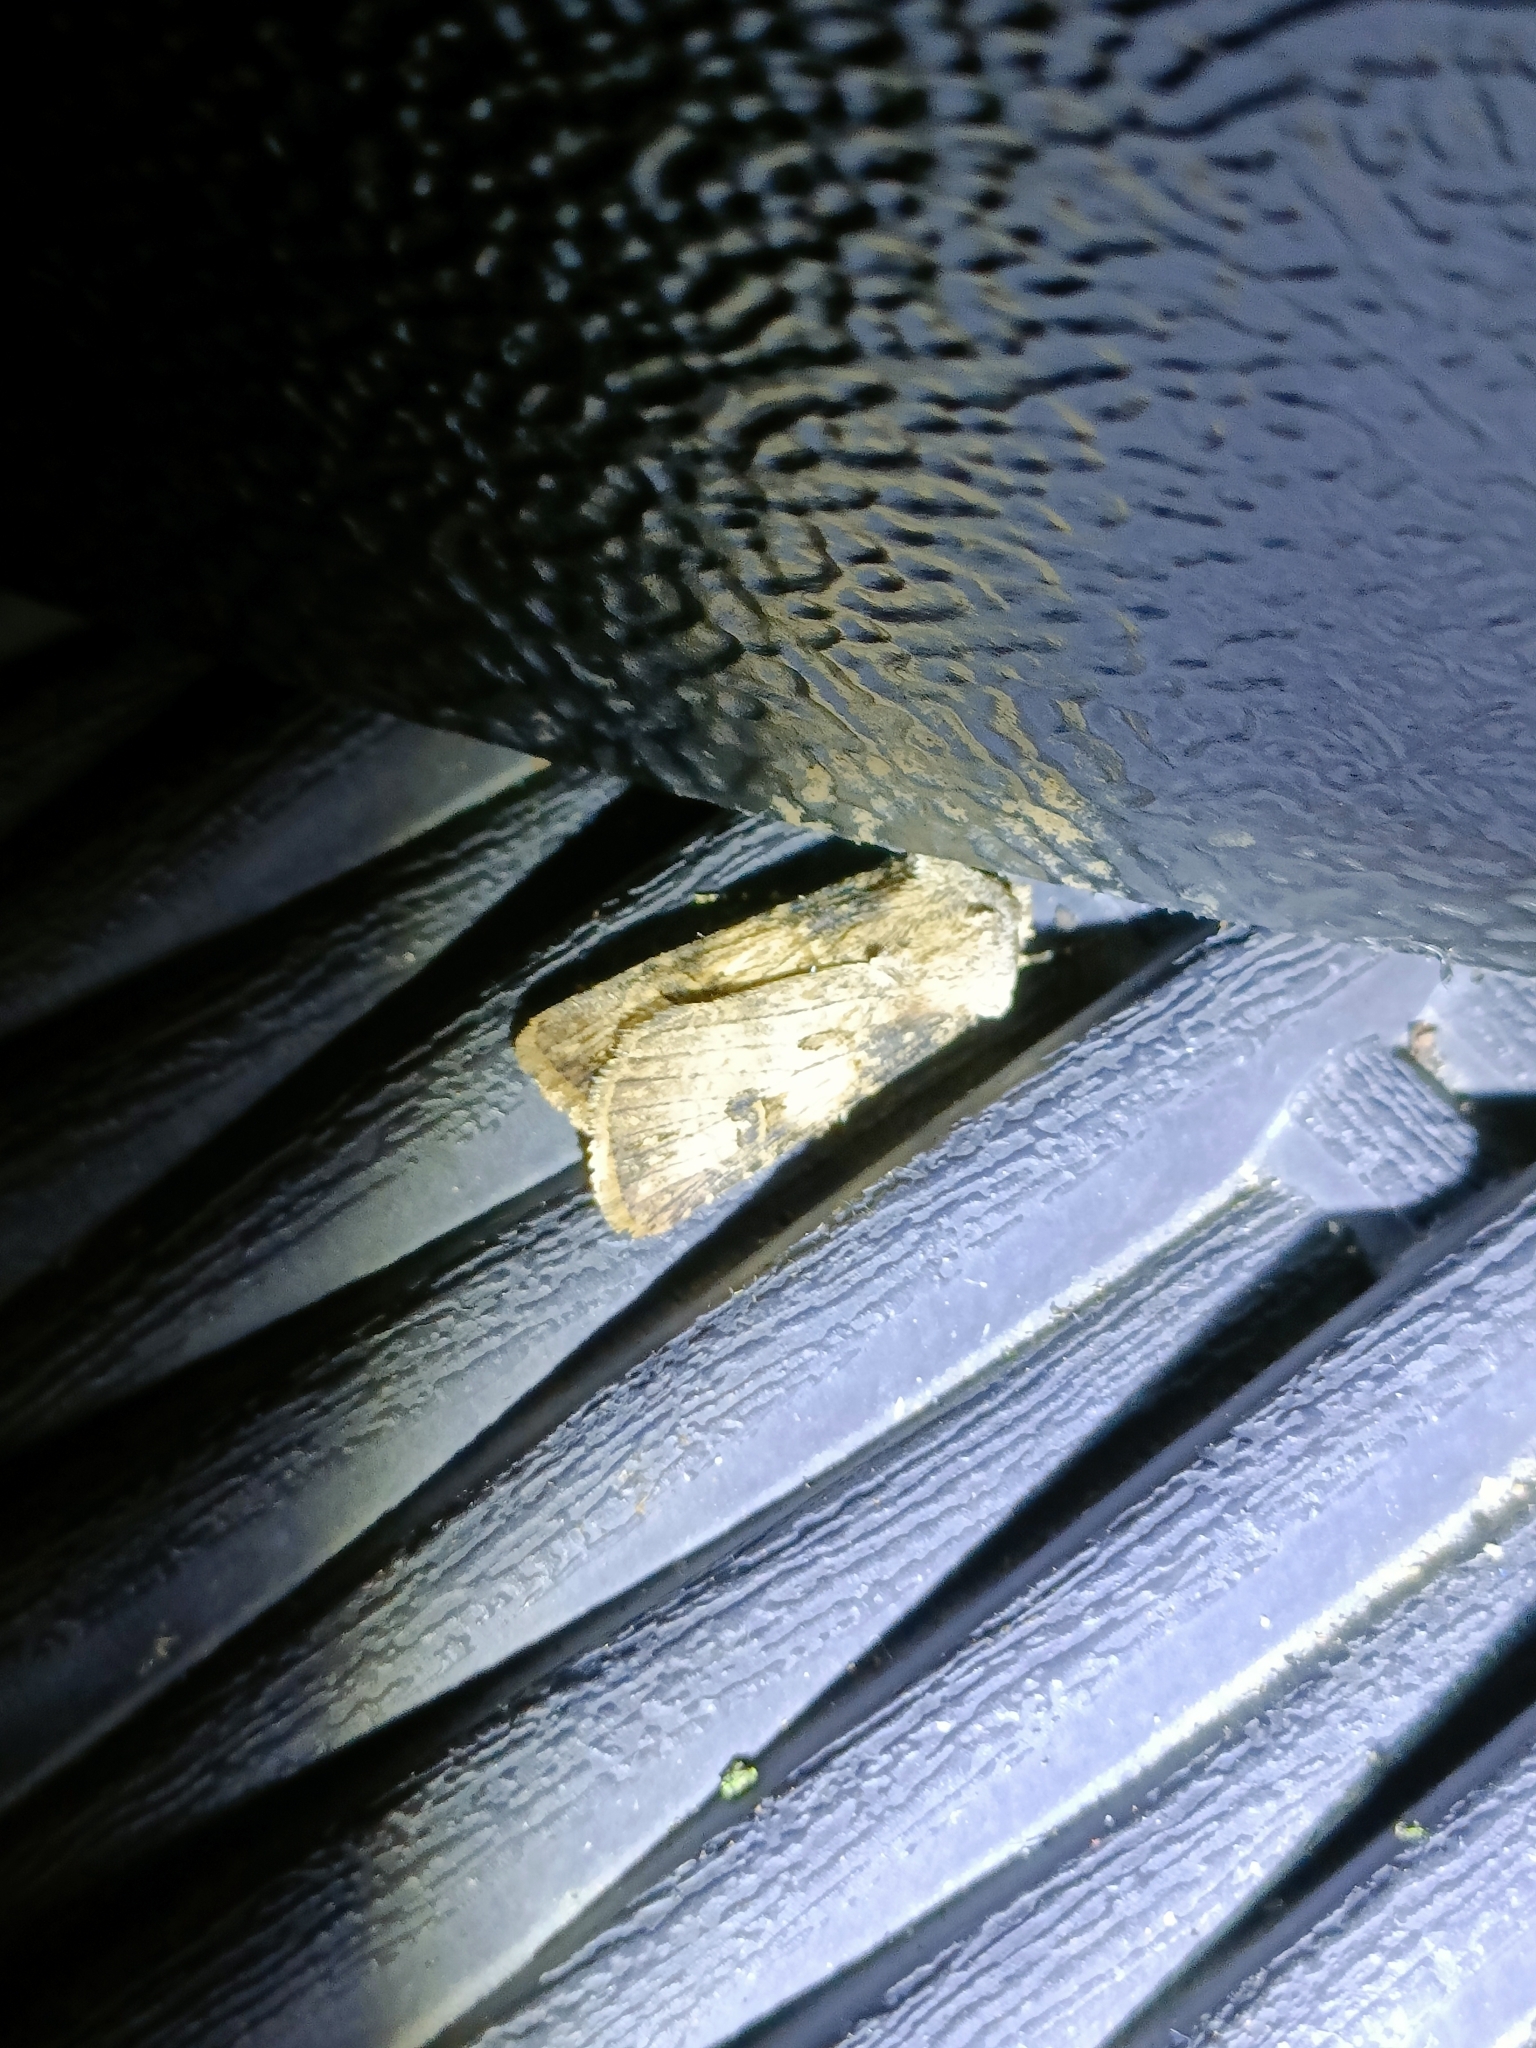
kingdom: Animalia
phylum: Arthropoda
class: Insecta
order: Lepidoptera
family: Noctuidae
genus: Agrotis
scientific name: Agrotis puta
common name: Shuttle-shaped dart
